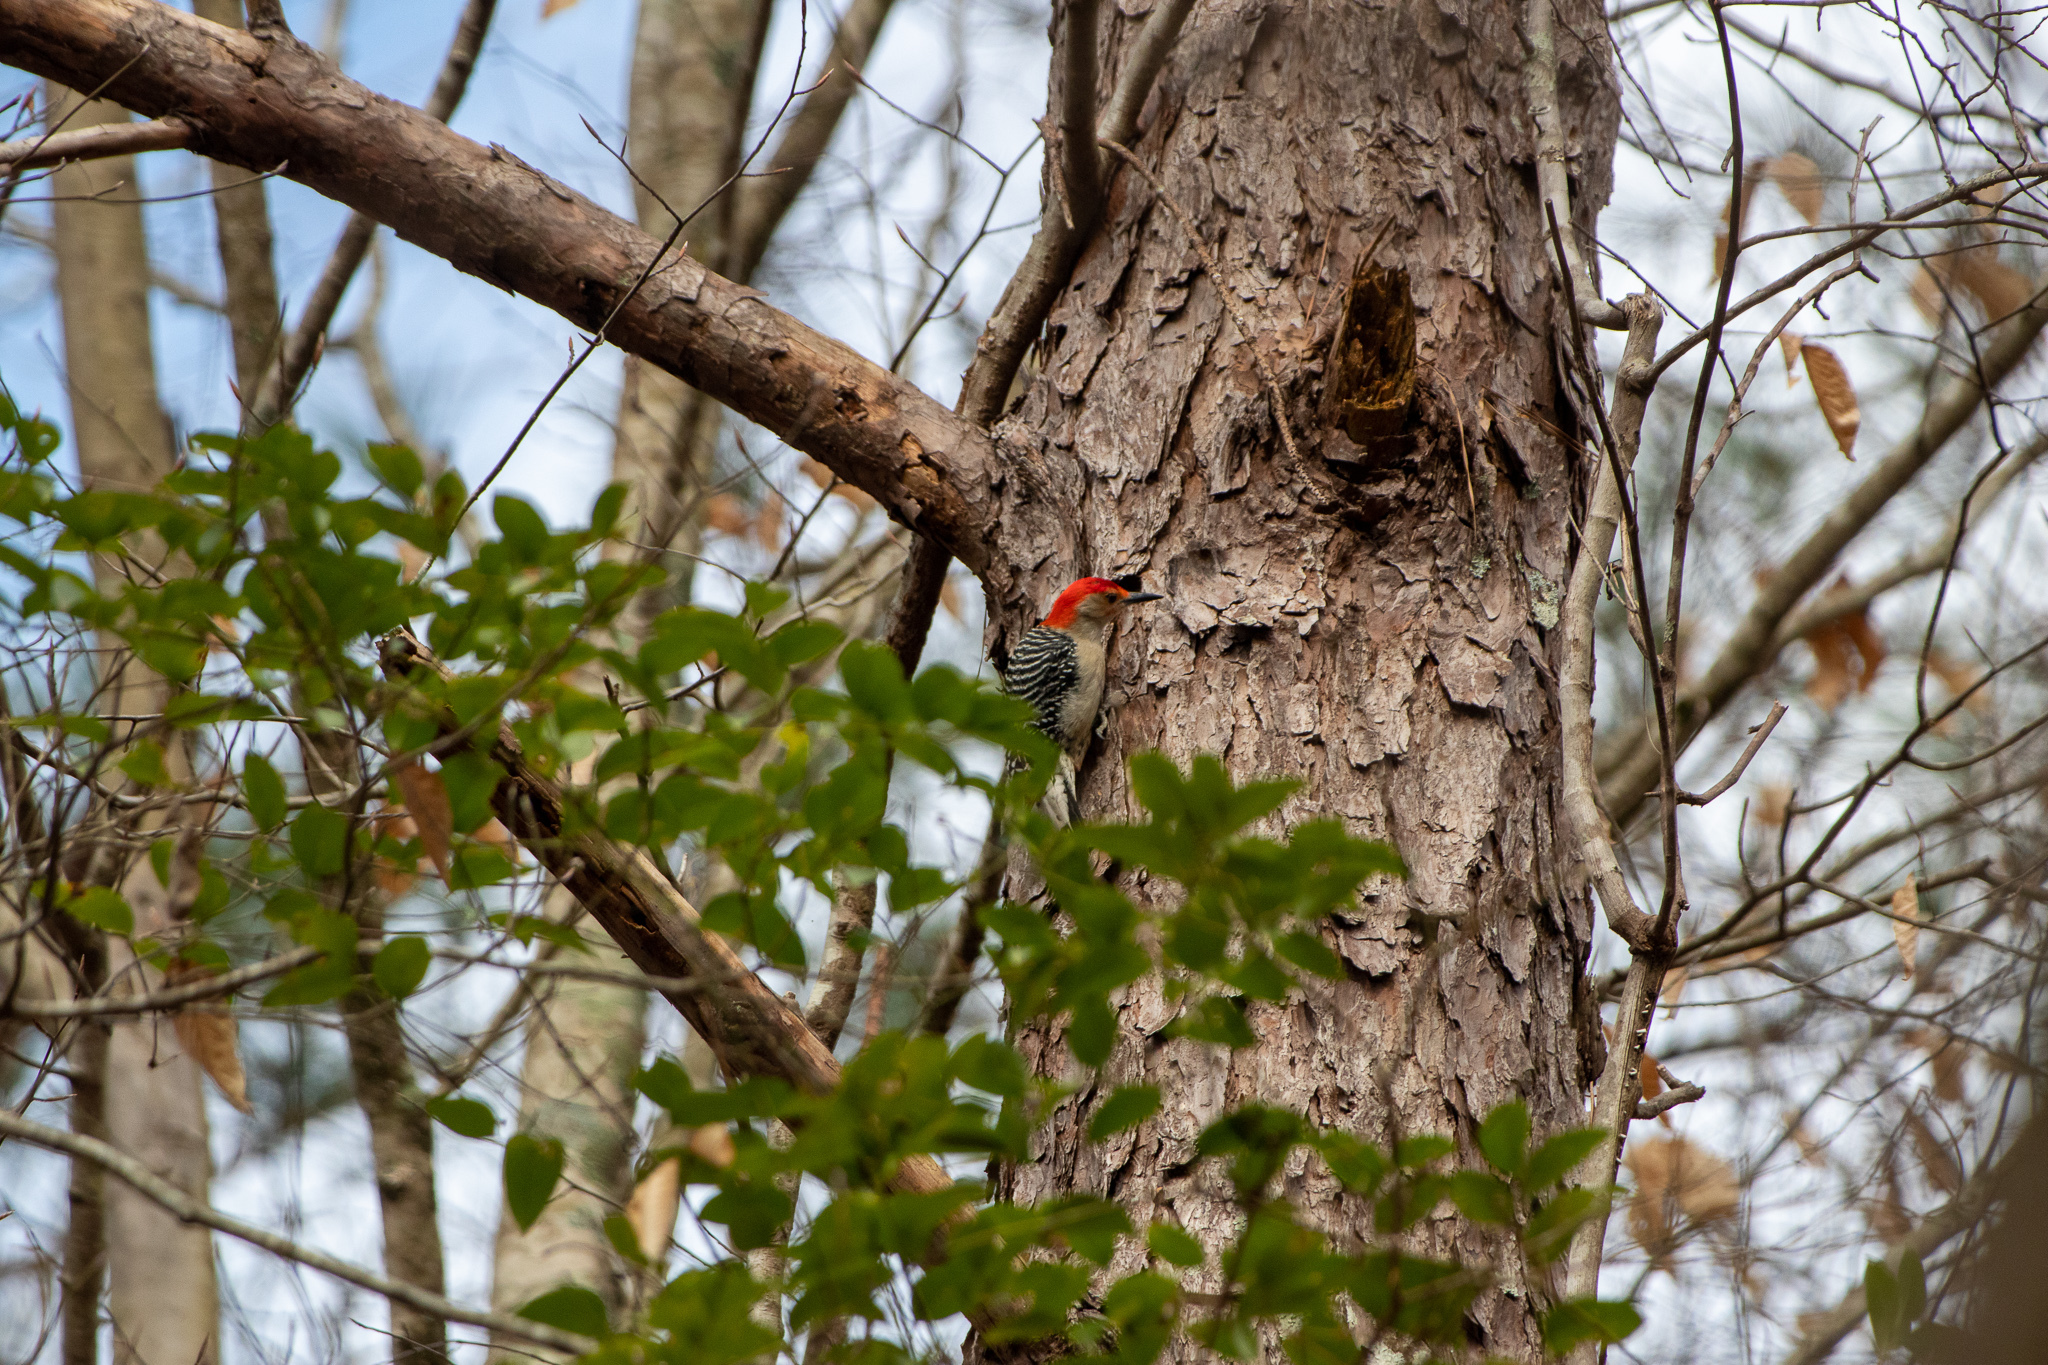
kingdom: Animalia
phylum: Chordata
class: Aves
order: Piciformes
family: Picidae
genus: Melanerpes
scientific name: Melanerpes carolinus
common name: Red-bellied woodpecker
